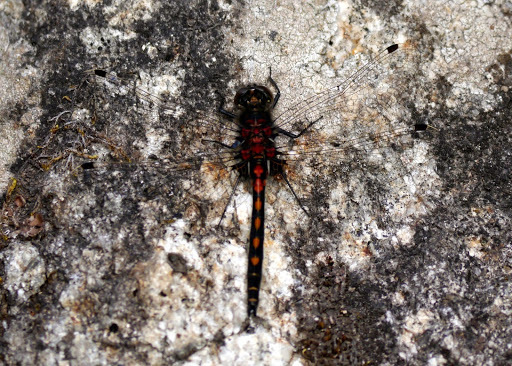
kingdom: Animalia
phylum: Arthropoda
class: Insecta
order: Odonata
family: Libellulidae
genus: Leucorrhinia
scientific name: Leucorrhinia hudsonica
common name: Hudsonian whiteface
